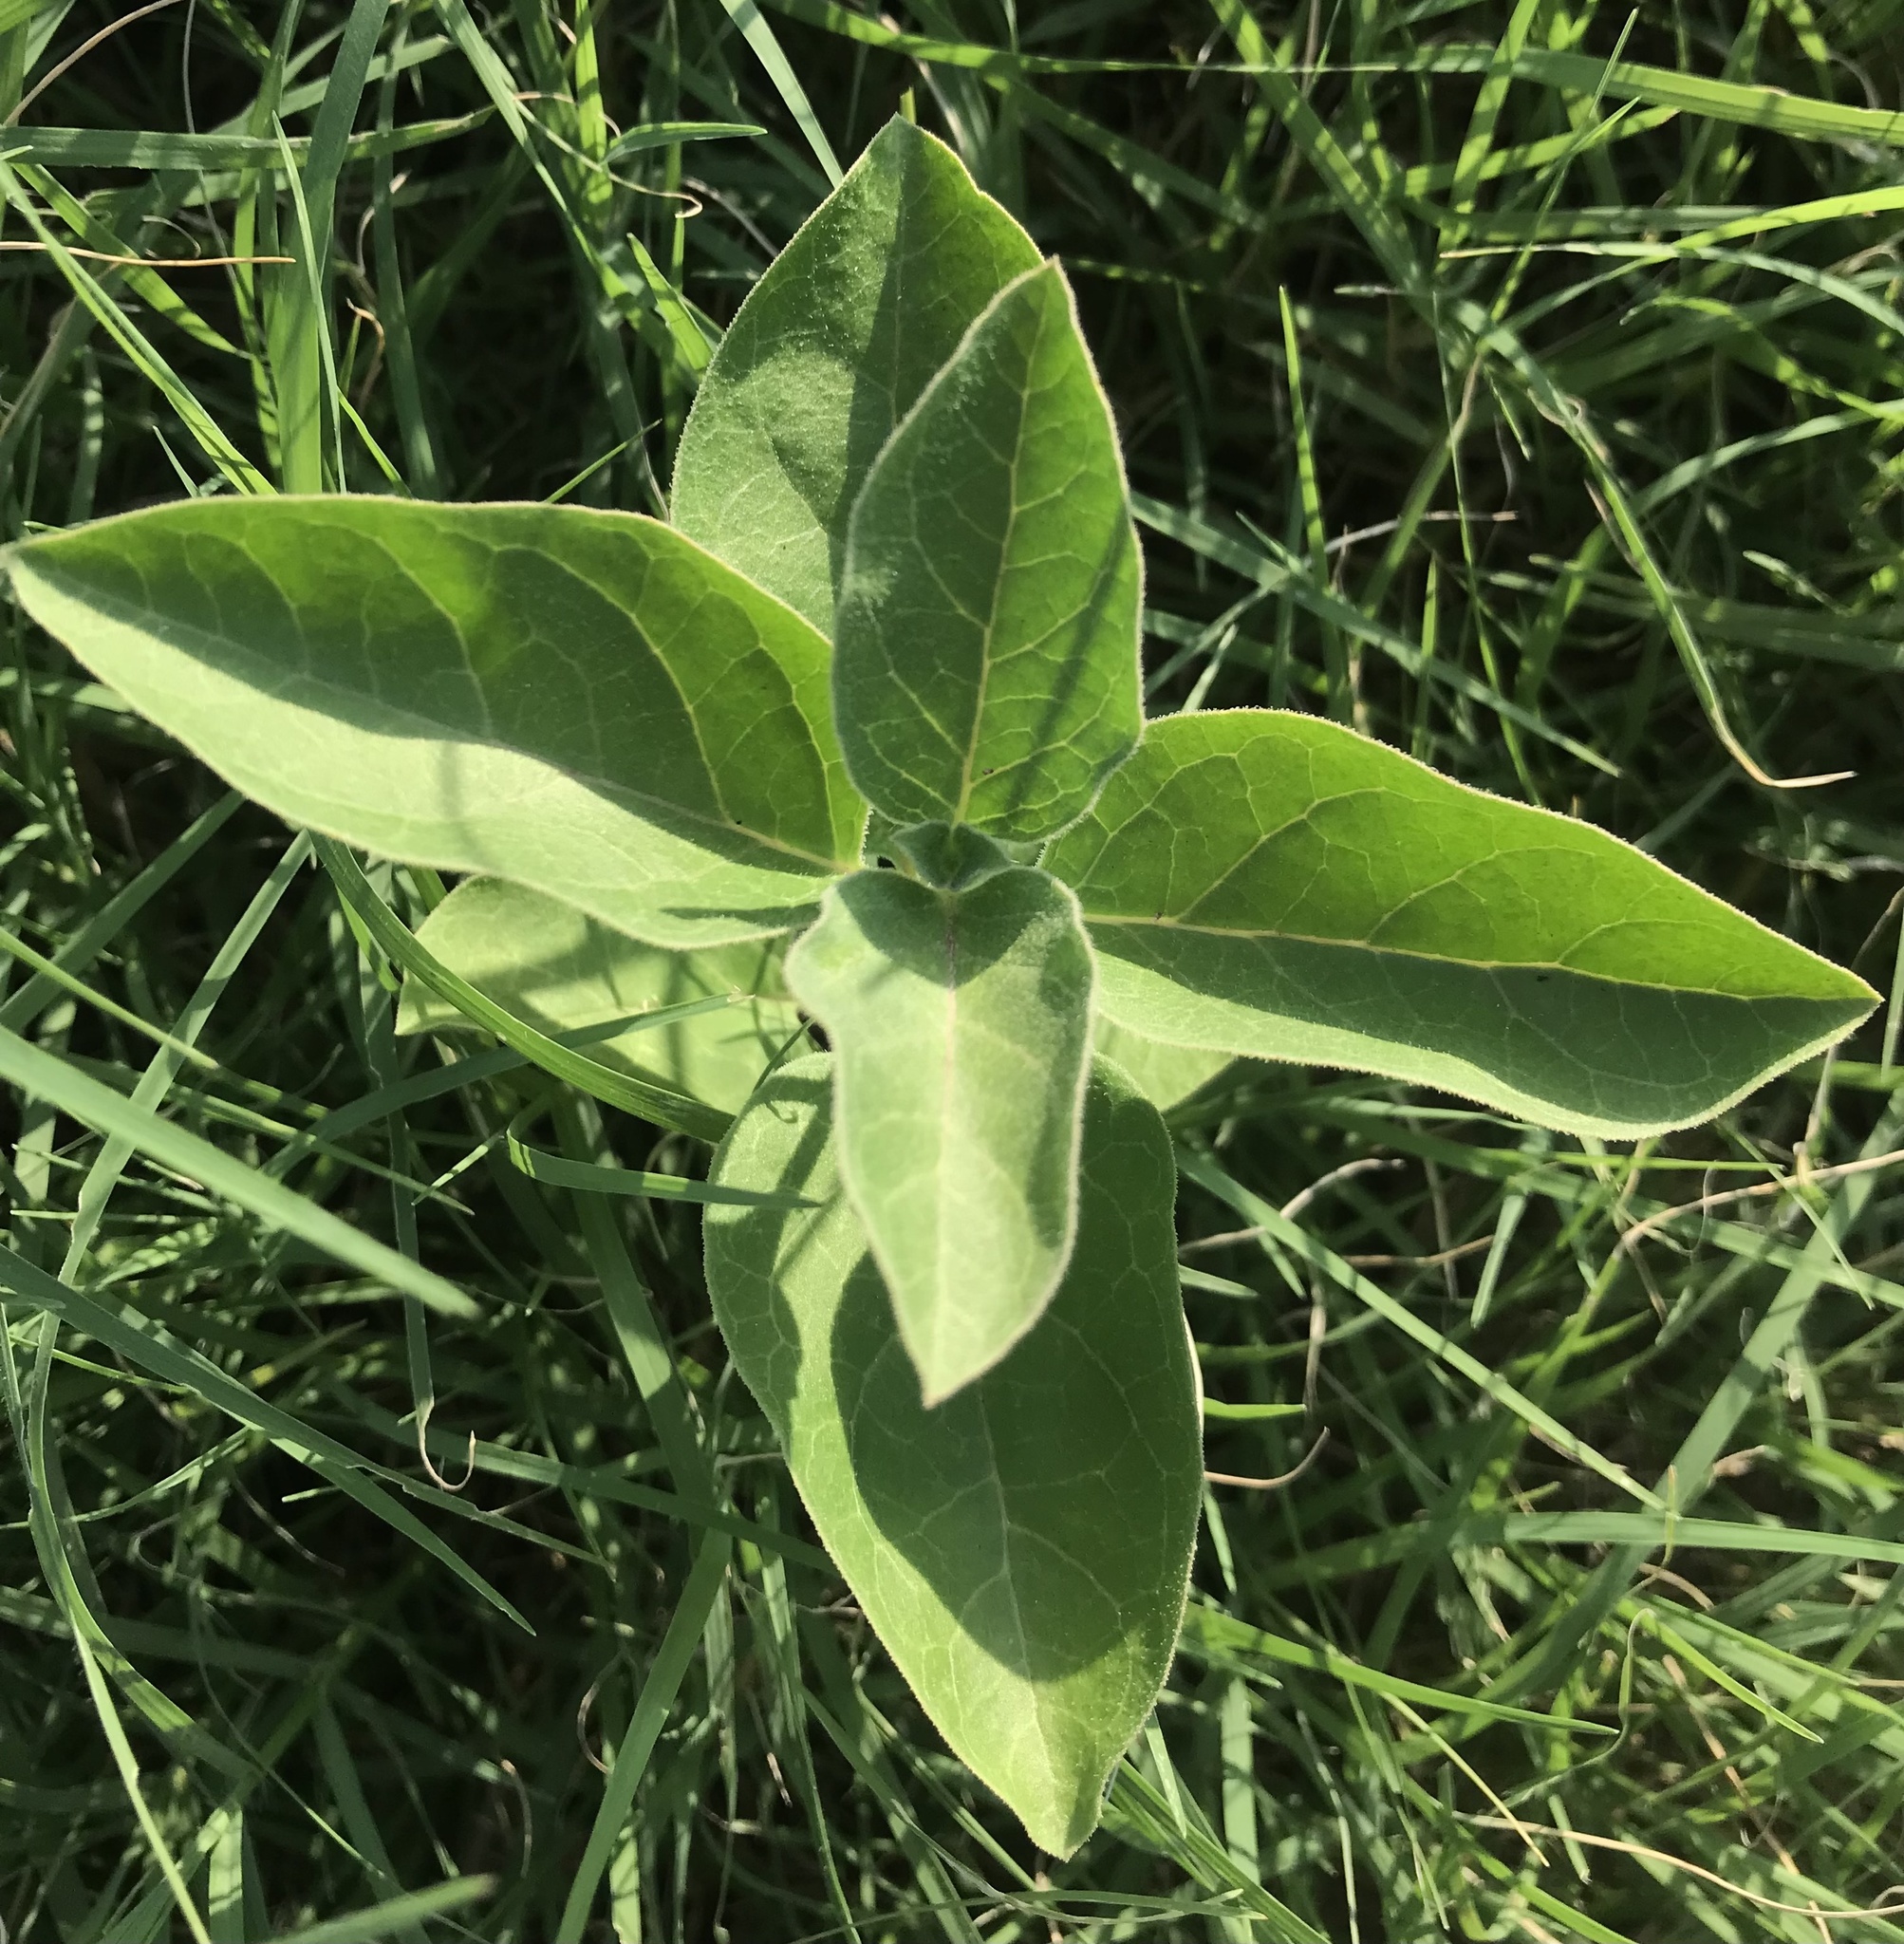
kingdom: Plantae
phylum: Tracheophyta
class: Magnoliopsida
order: Gentianales
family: Apocynaceae
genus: Asclepias
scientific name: Asclepias oenotheroides
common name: Zizotes milkweed
